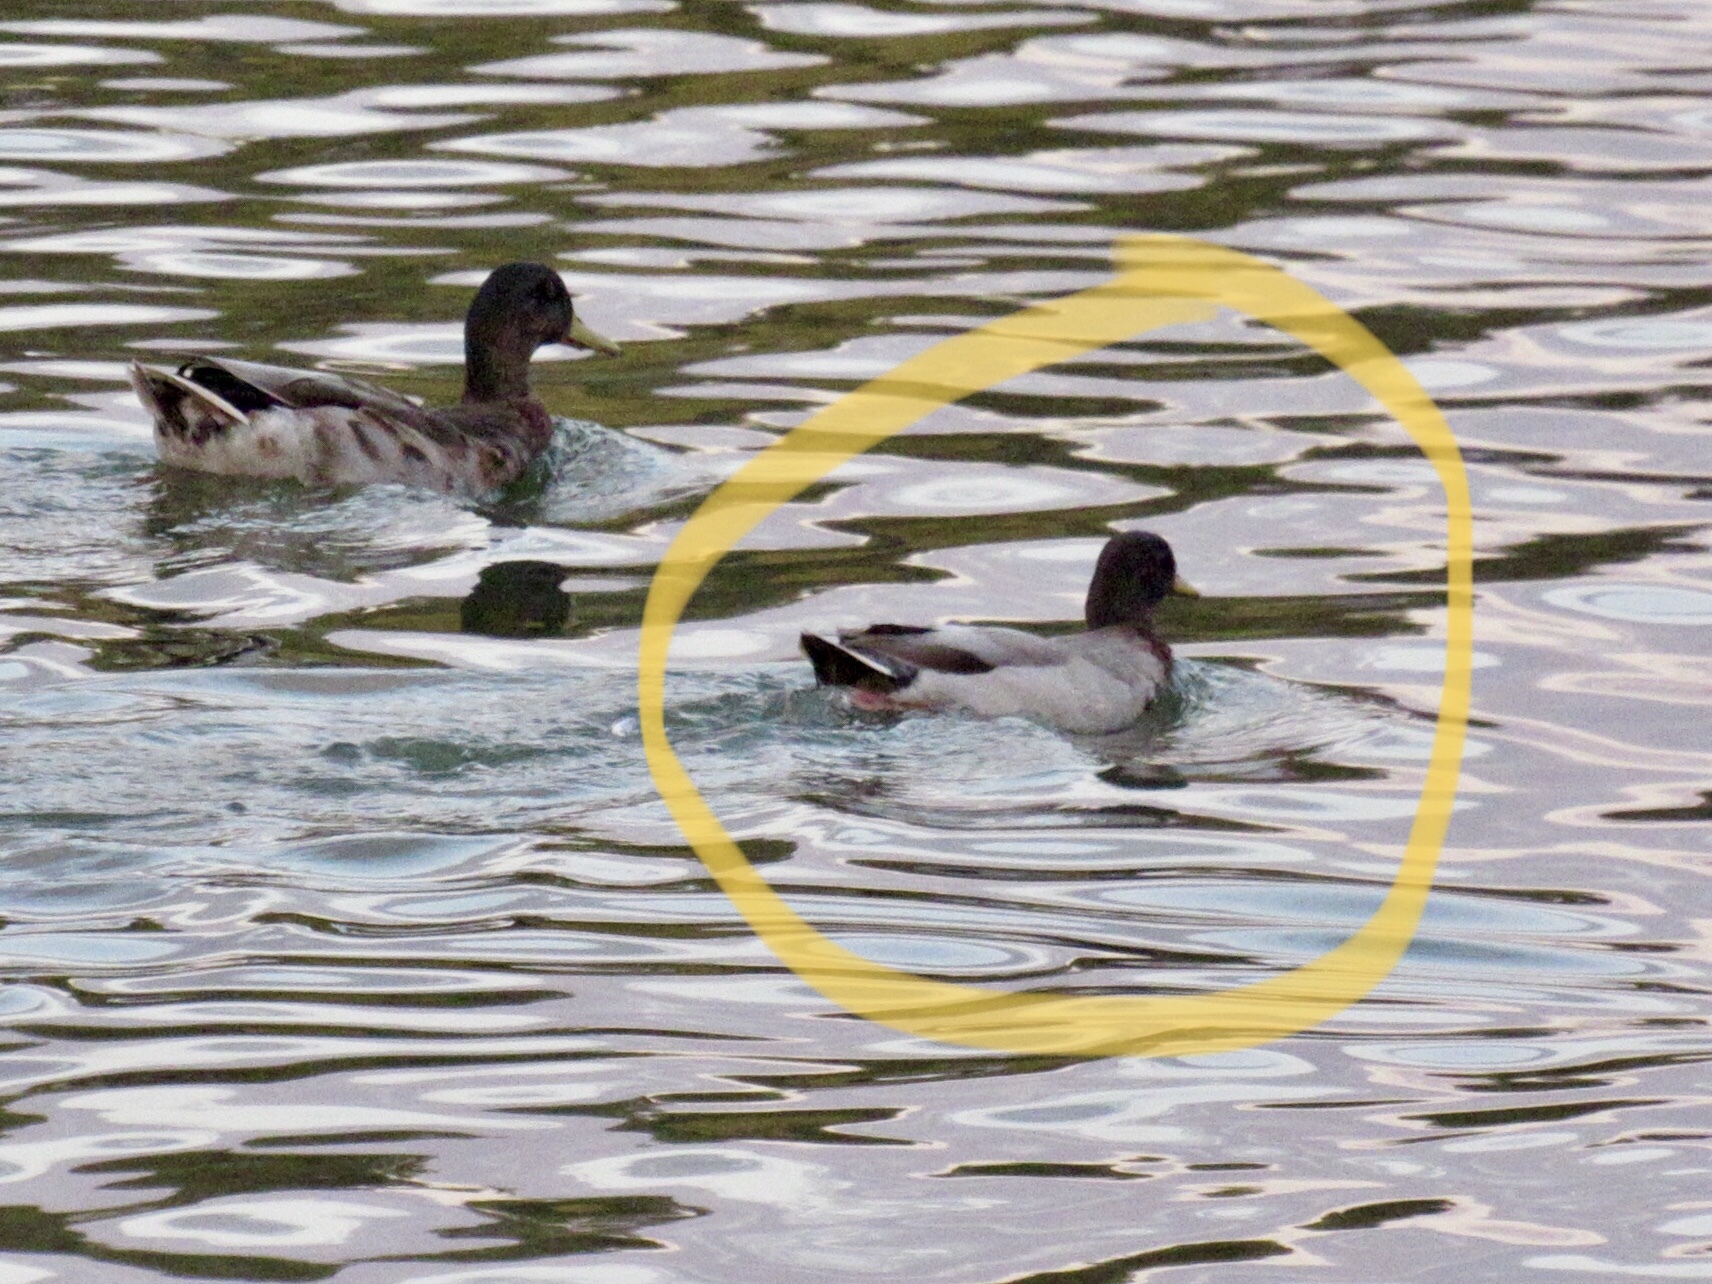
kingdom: Animalia
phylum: Chordata
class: Aves
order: Anseriformes
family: Anatidae
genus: Anas
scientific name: Anas platyrhynchos
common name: Mallard
